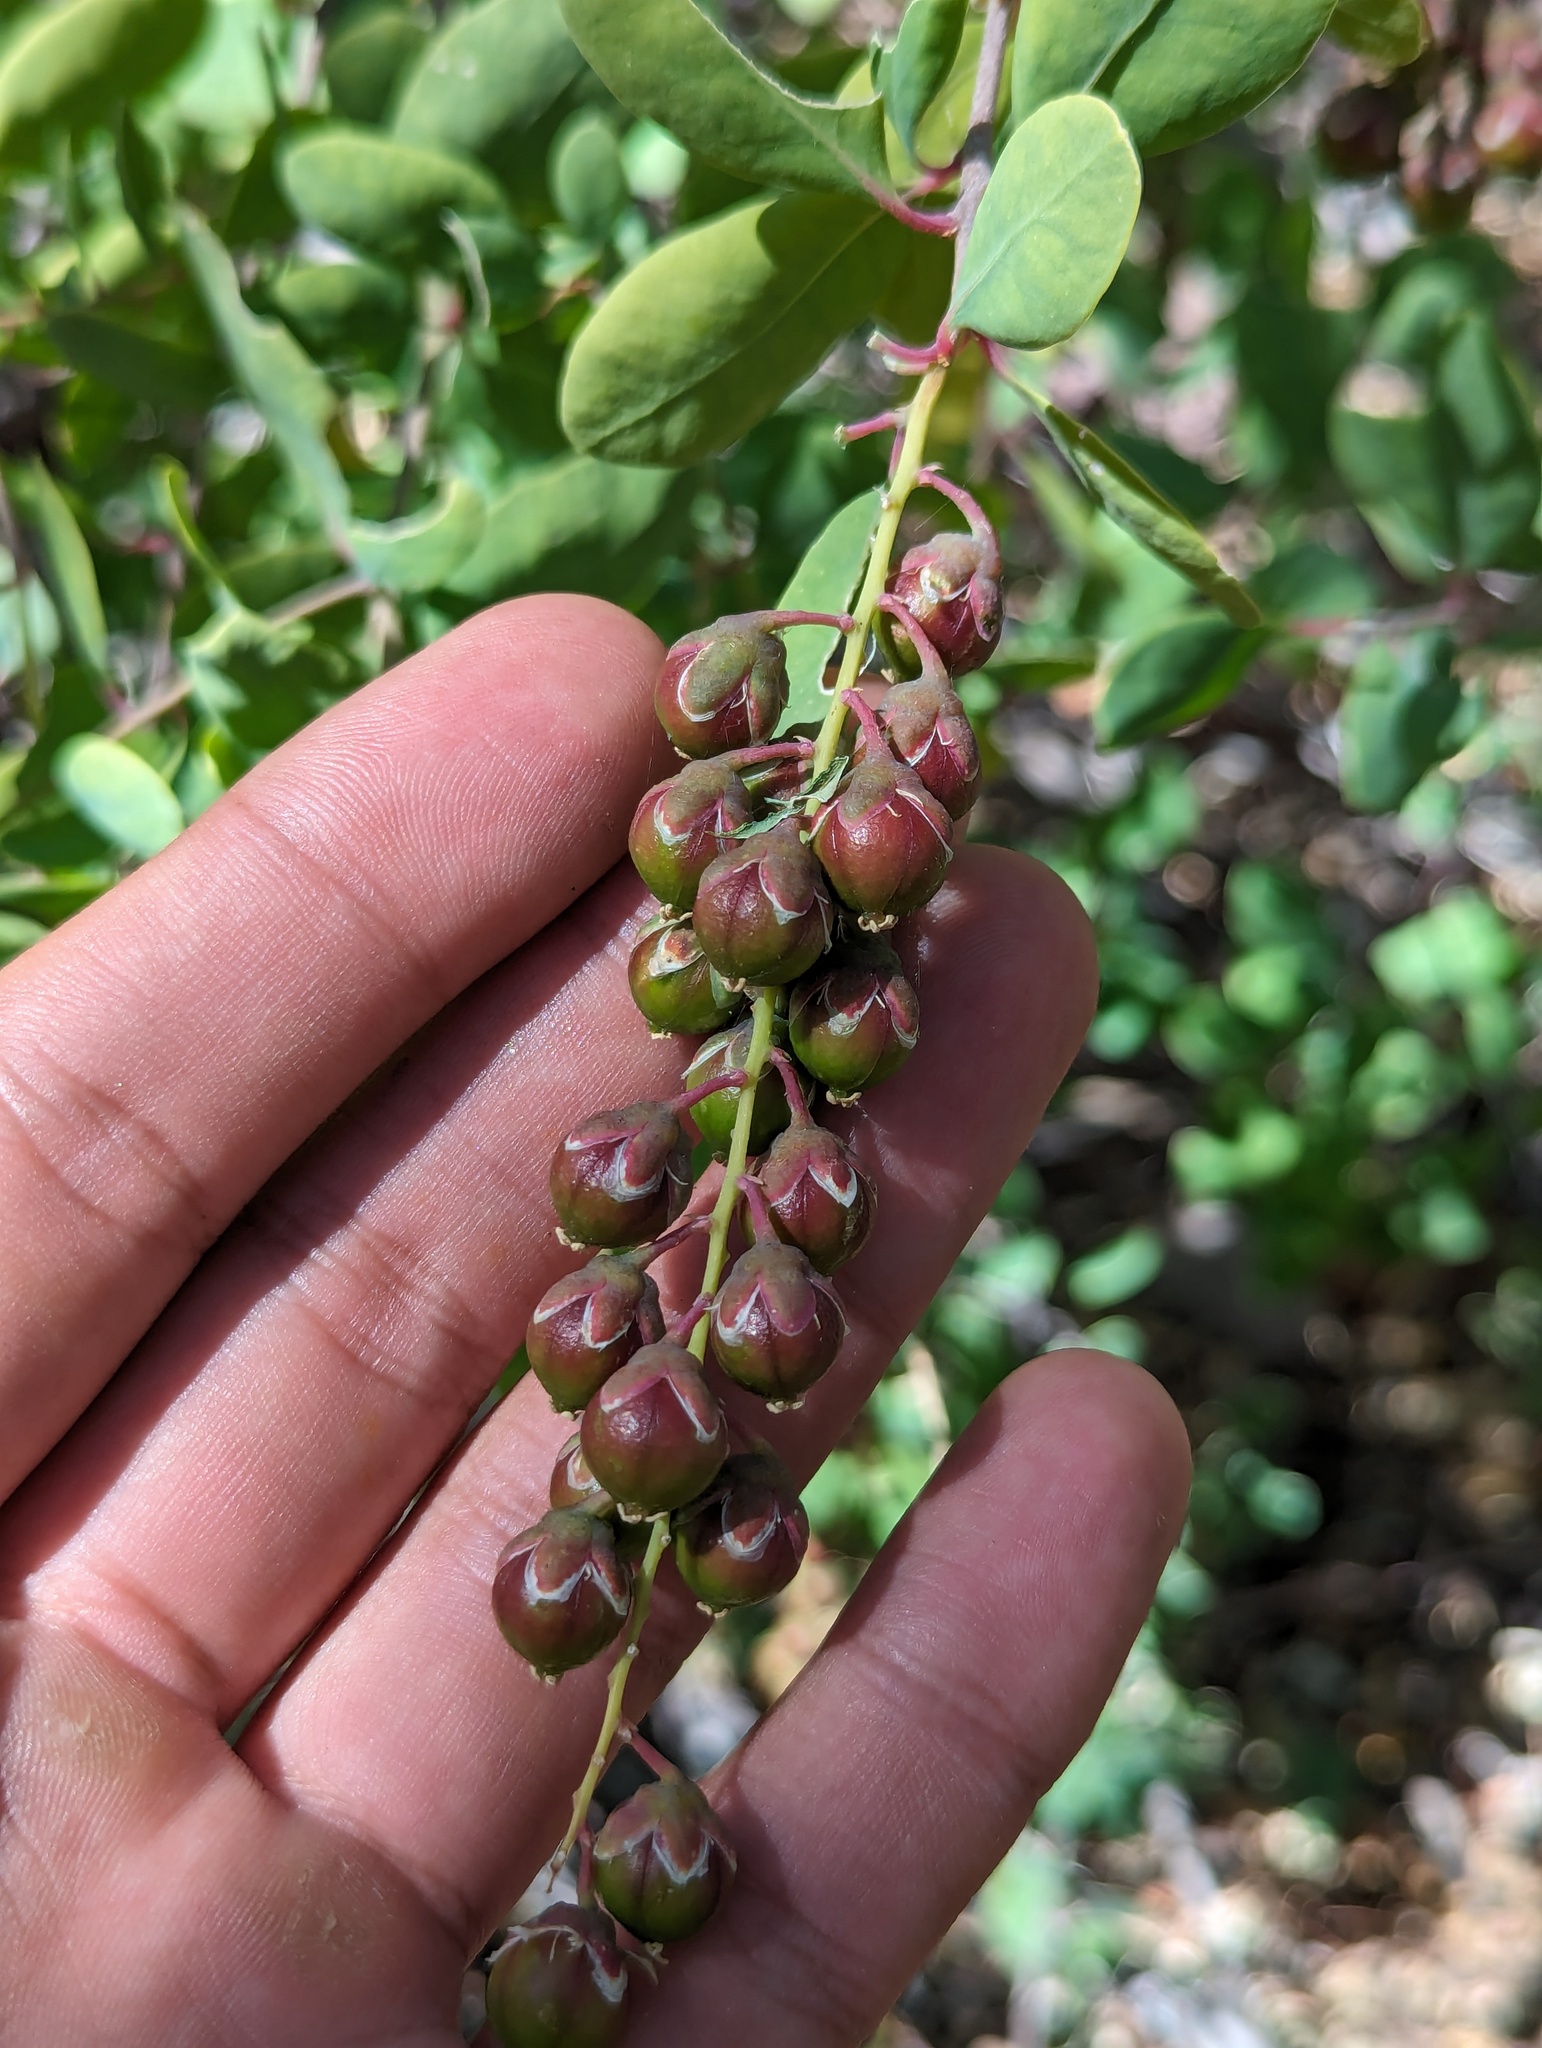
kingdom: Plantae
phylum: Tracheophyta
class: Magnoliopsida
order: Caryophyllales
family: Stegnospermataceae
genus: Stegnosperma
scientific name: Stegnosperma halimifolium
